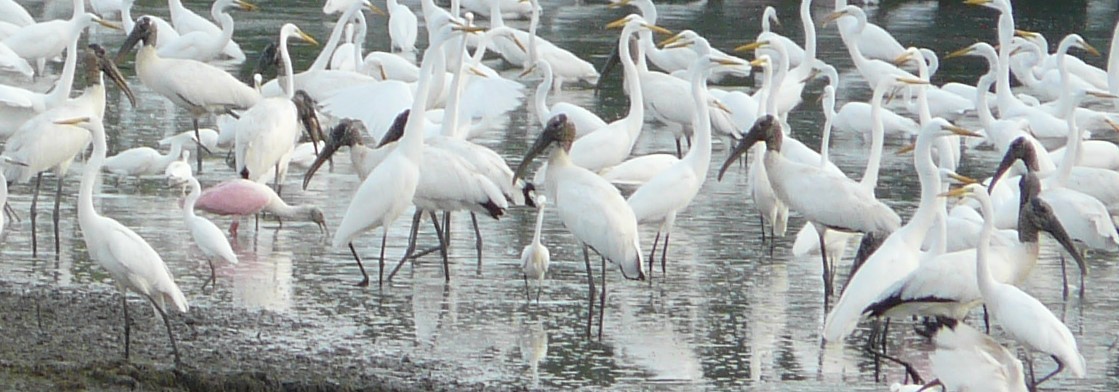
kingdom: Animalia
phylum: Chordata
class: Aves
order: Ciconiiformes
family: Ciconiidae
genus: Mycteria
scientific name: Mycteria americana
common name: Wood stork
